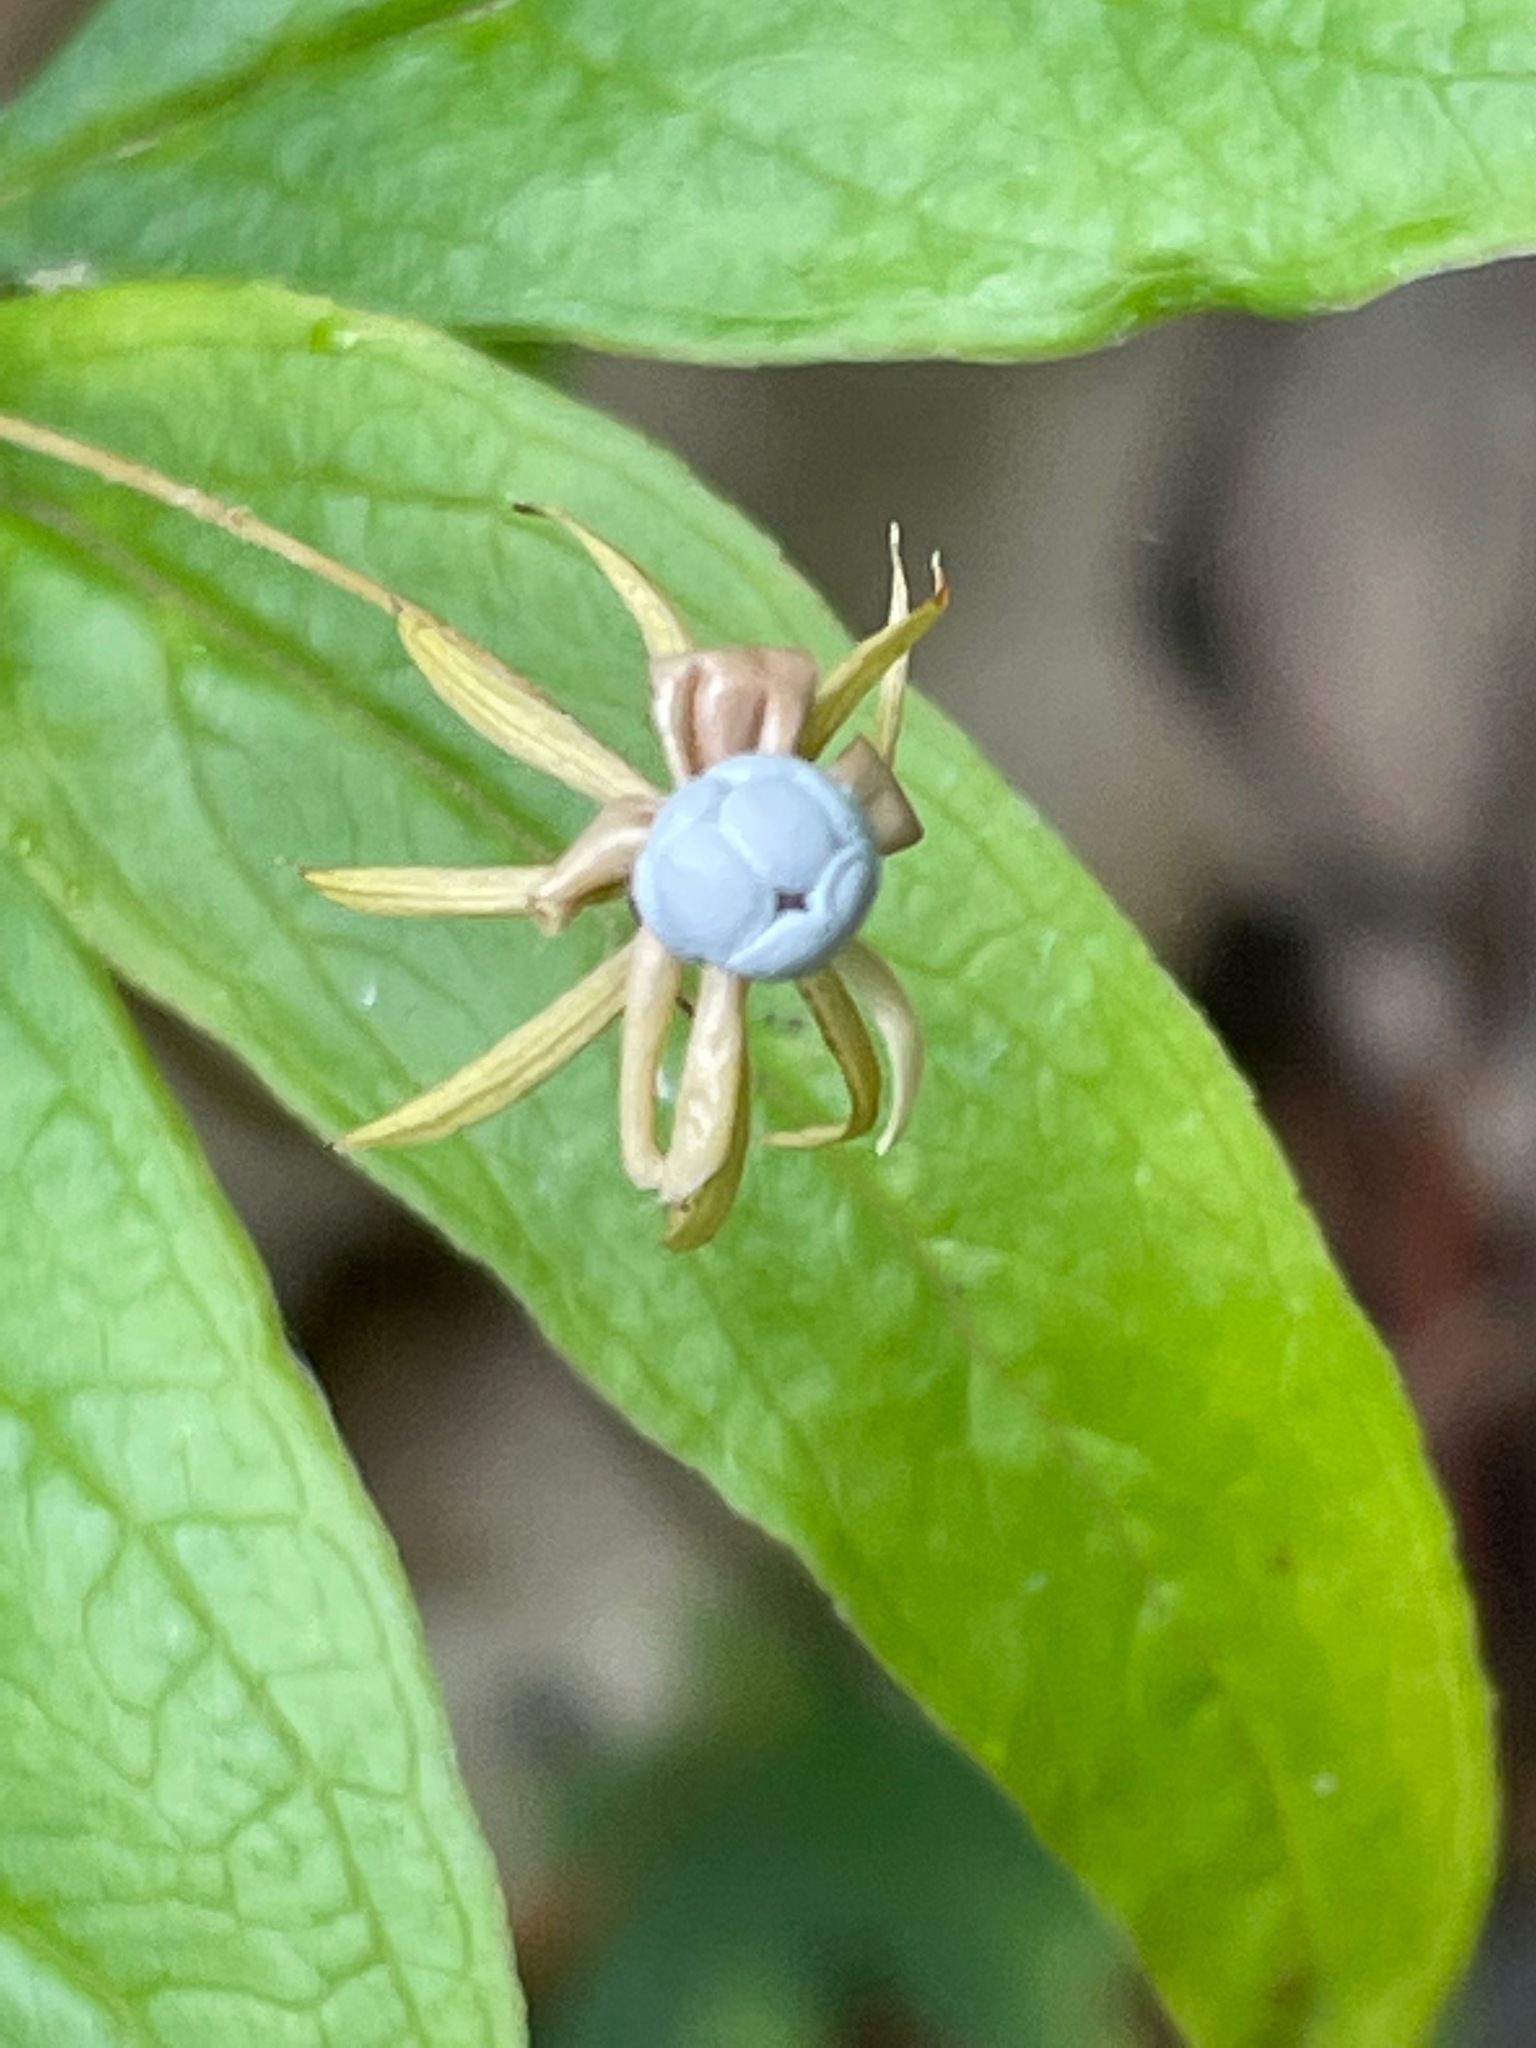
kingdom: Plantae
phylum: Tracheophyta
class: Magnoliopsida
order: Ericales
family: Primulaceae
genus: Lysimachia
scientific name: Lysimachia borealis
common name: American starflower
